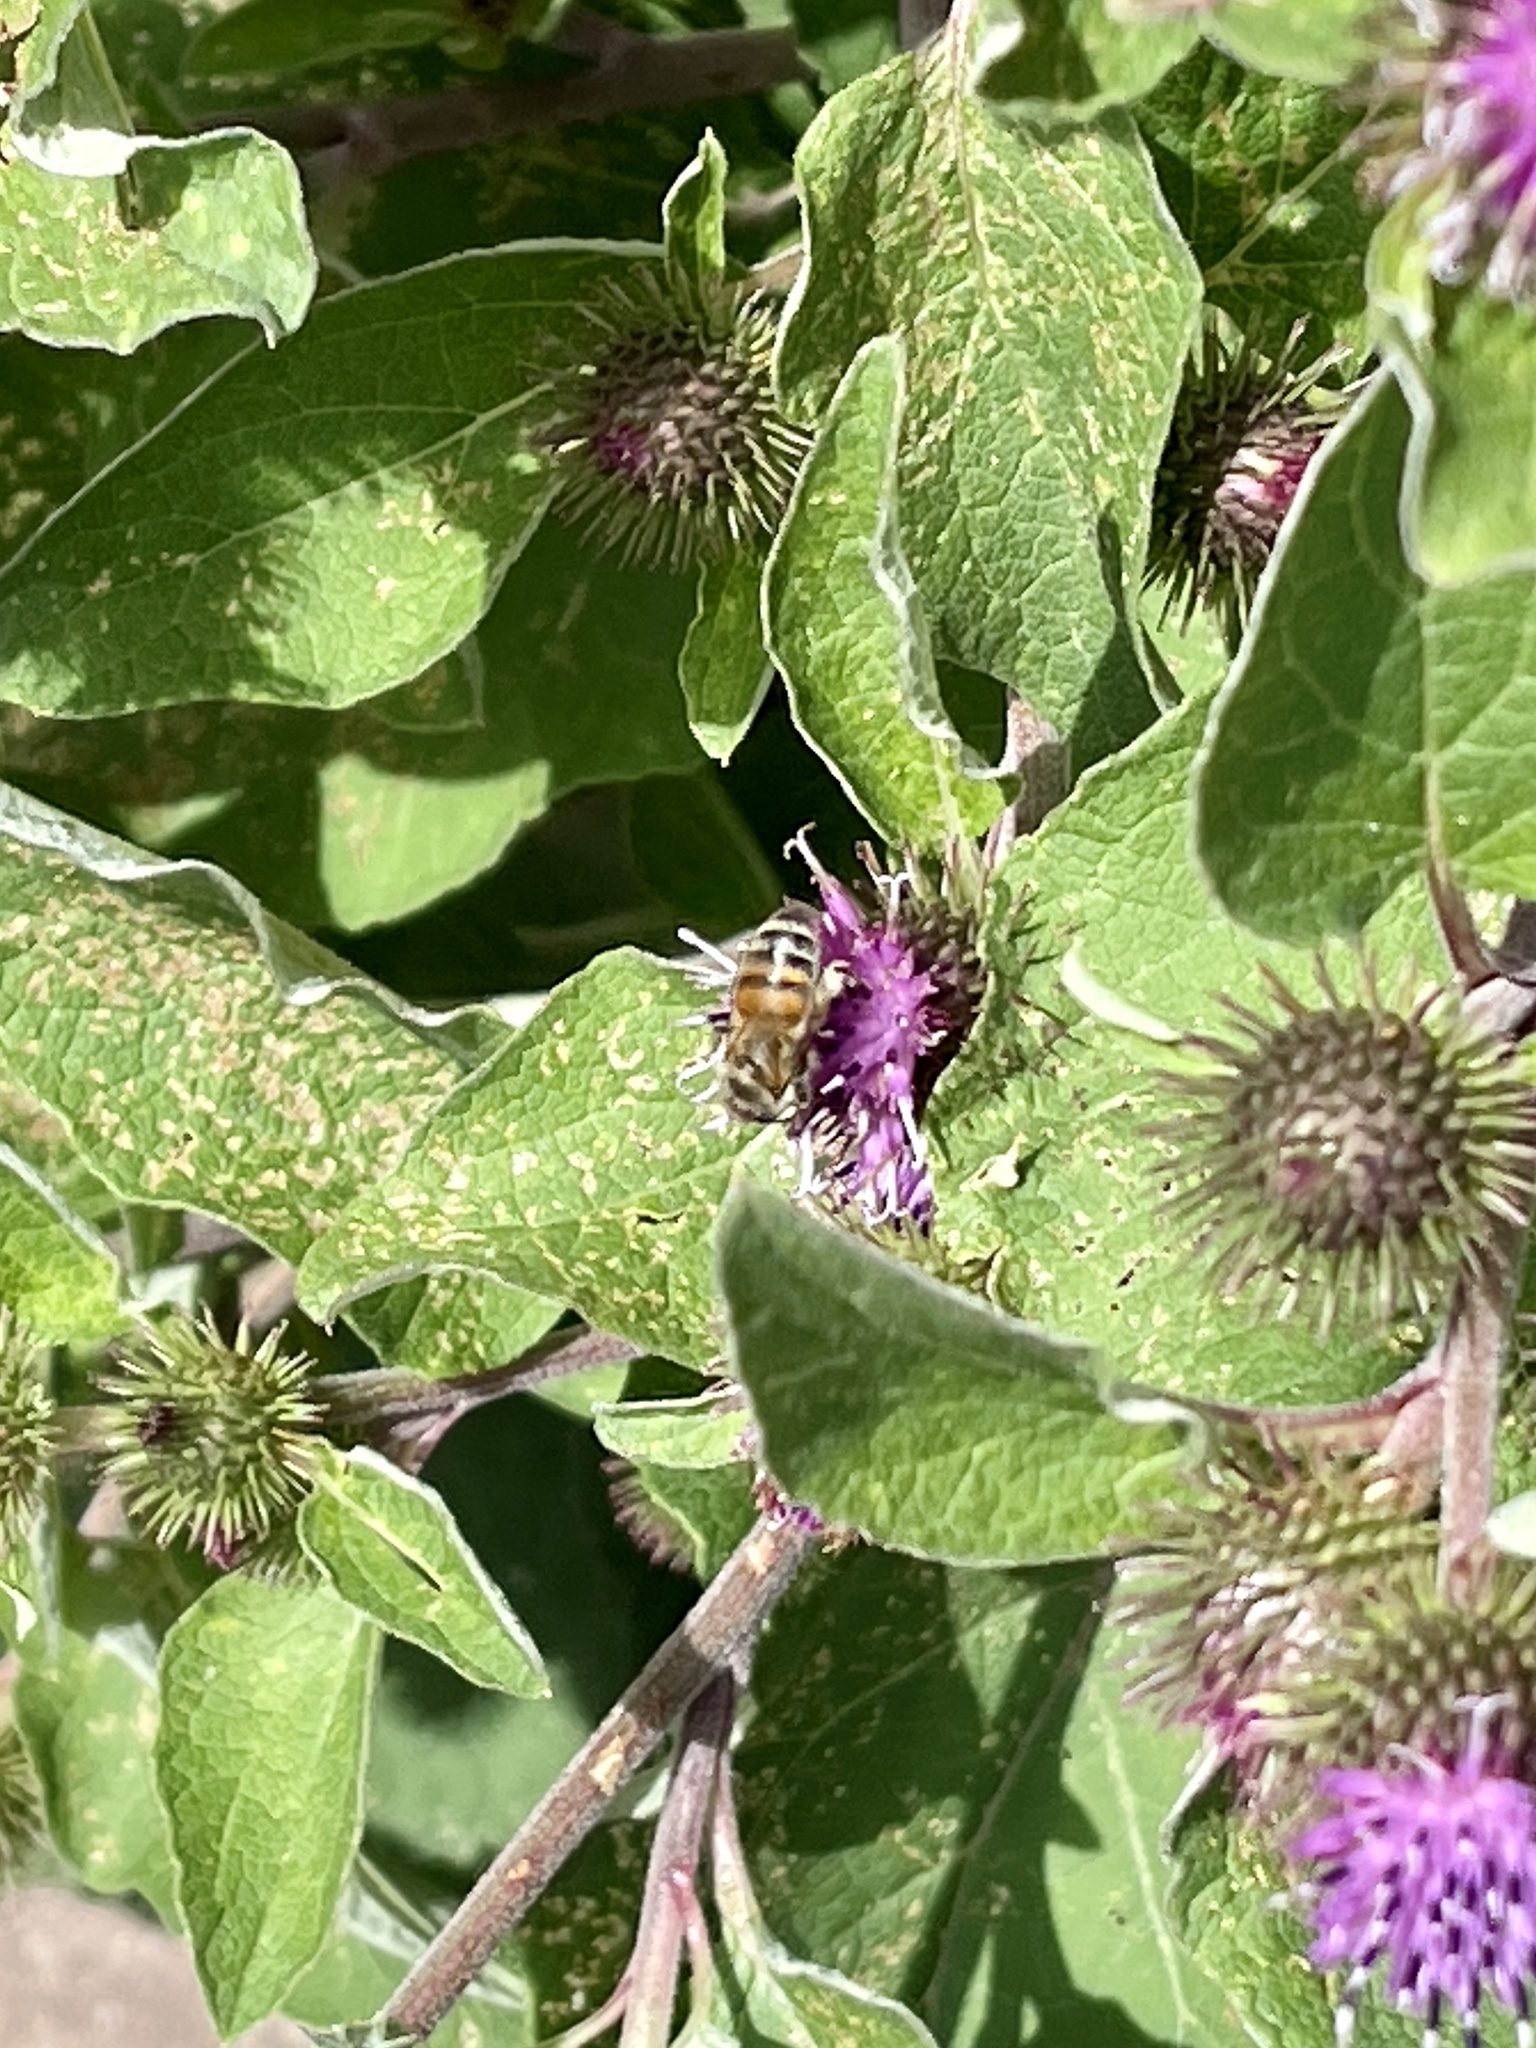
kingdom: Animalia
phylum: Arthropoda
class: Insecta
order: Hymenoptera
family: Apidae
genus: Apis
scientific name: Apis mellifera
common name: Honey bee
